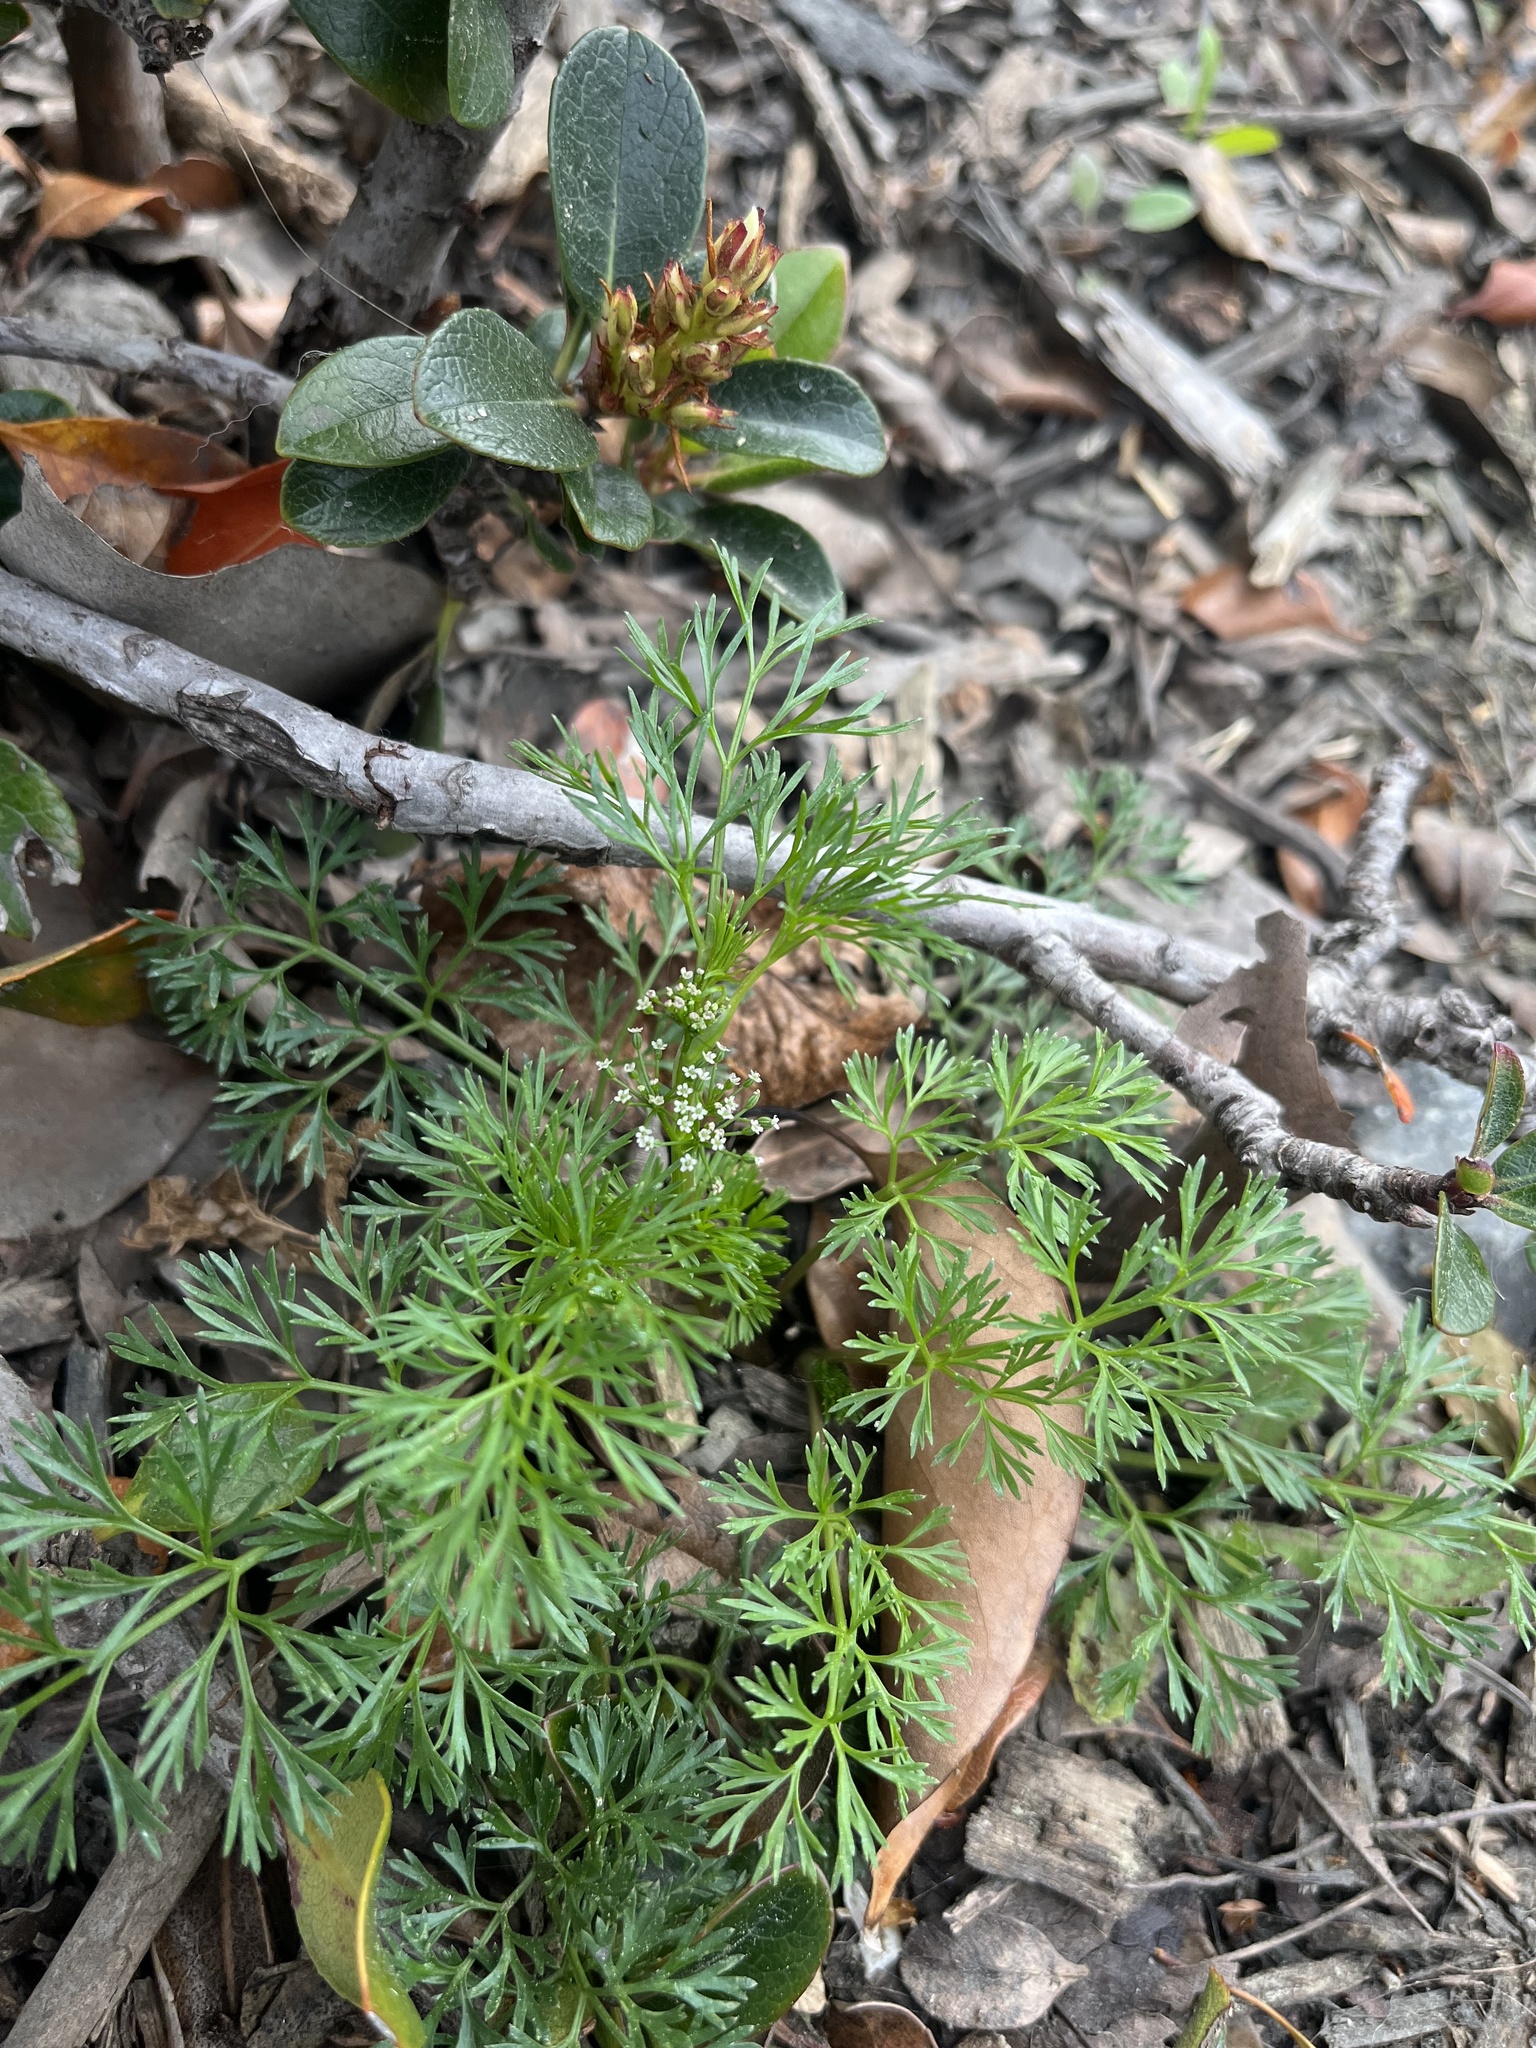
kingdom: Plantae
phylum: Tracheophyta
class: Magnoliopsida
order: Apiales
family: Apiaceae
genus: Cyclospermum
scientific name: Cyclospermum leptophyllum
